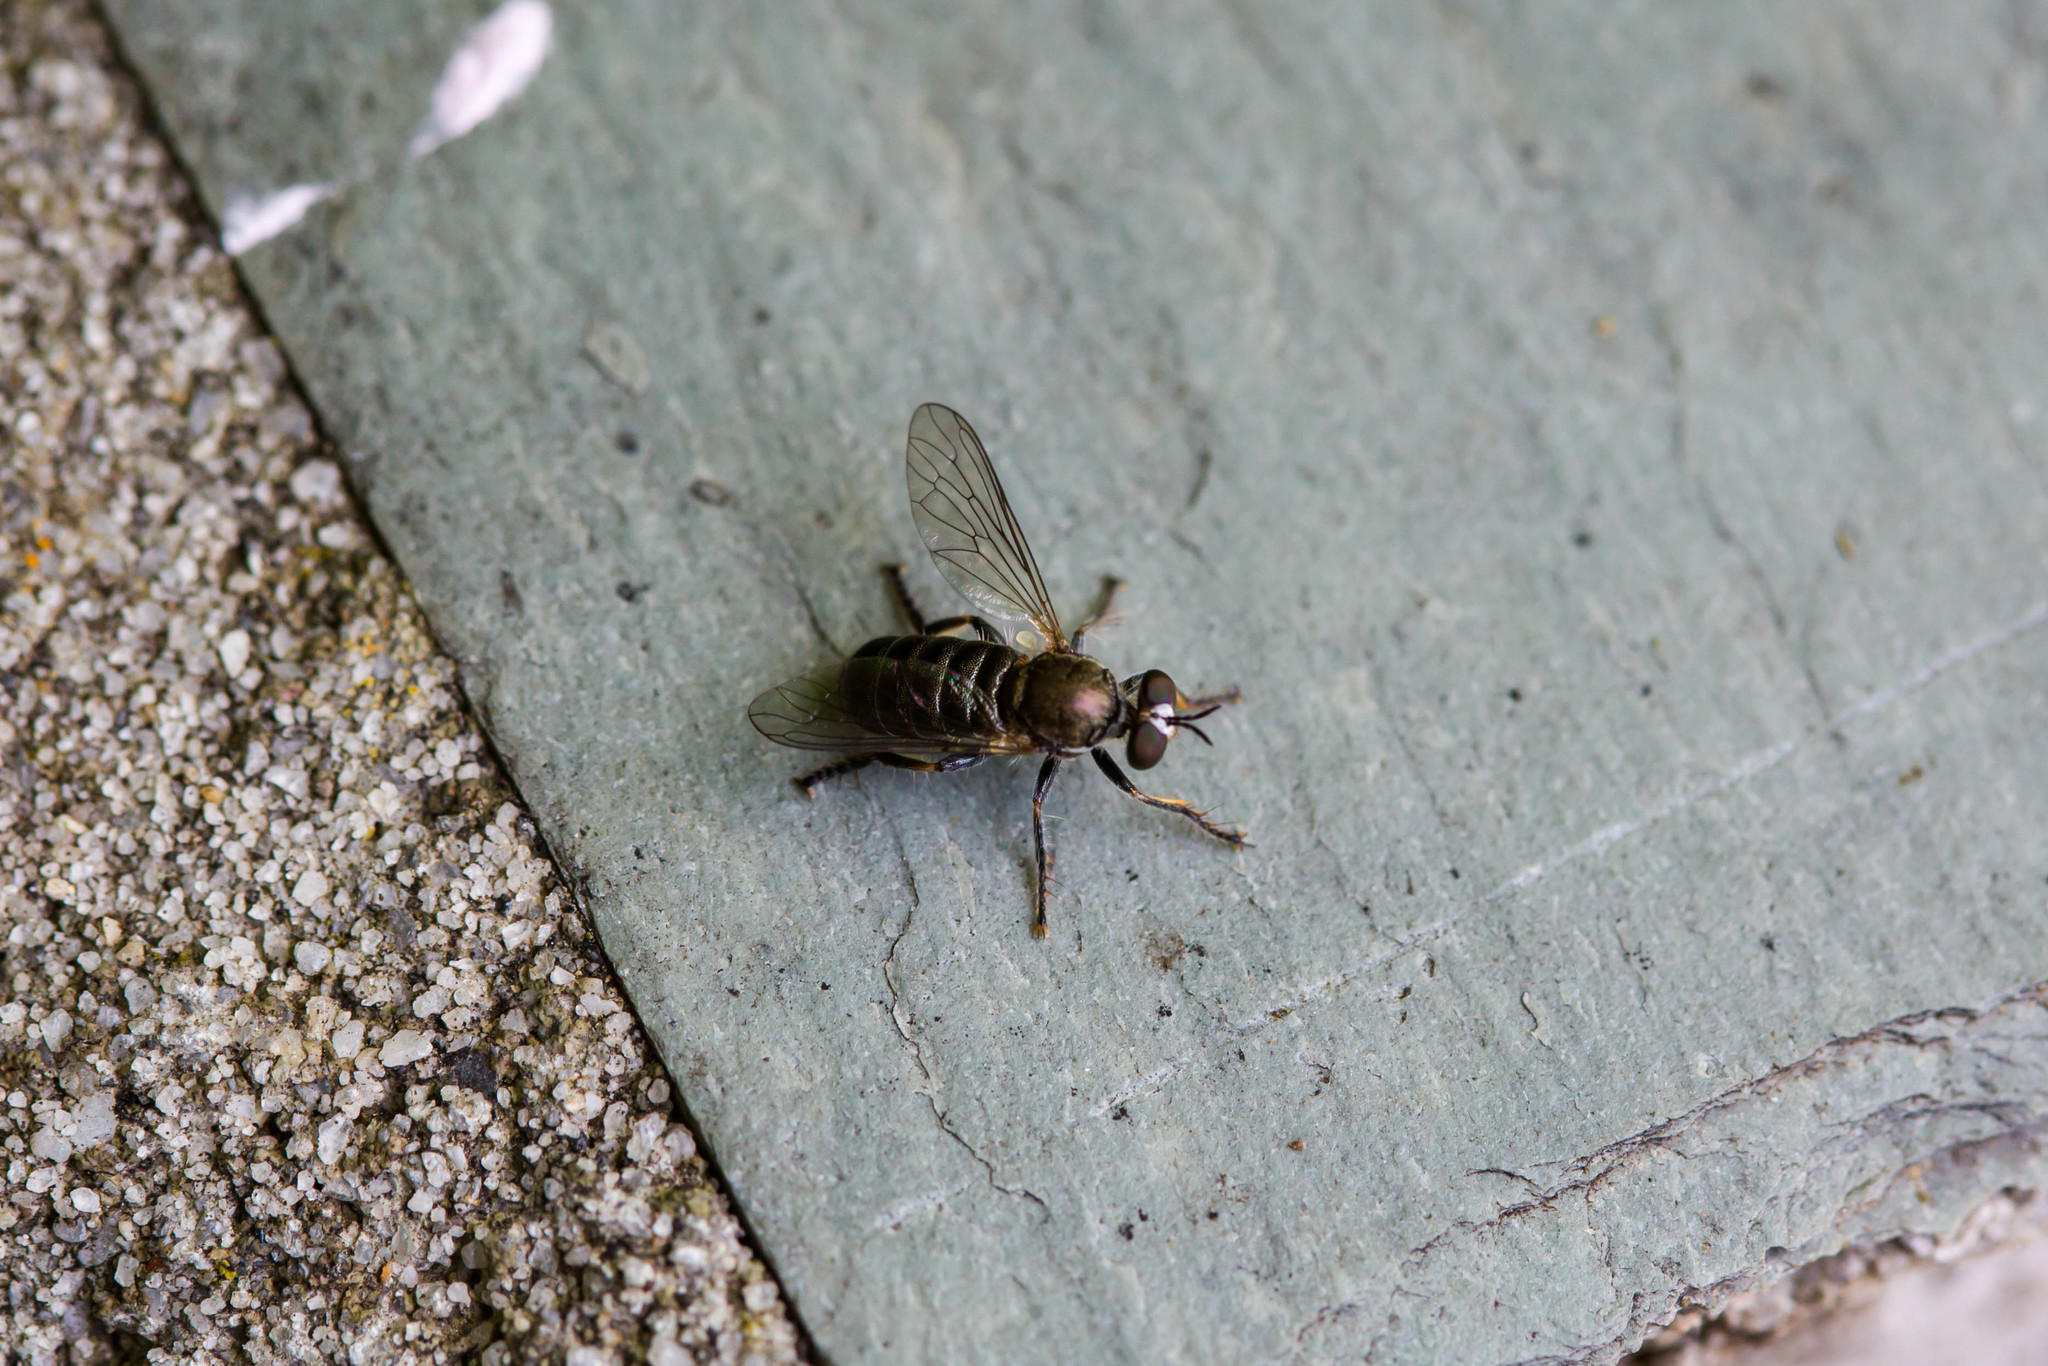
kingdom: Animalia
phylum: Arthropoda
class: Insecta
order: Diptera
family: Asilidae
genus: Atomosia
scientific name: Atomosia puella
